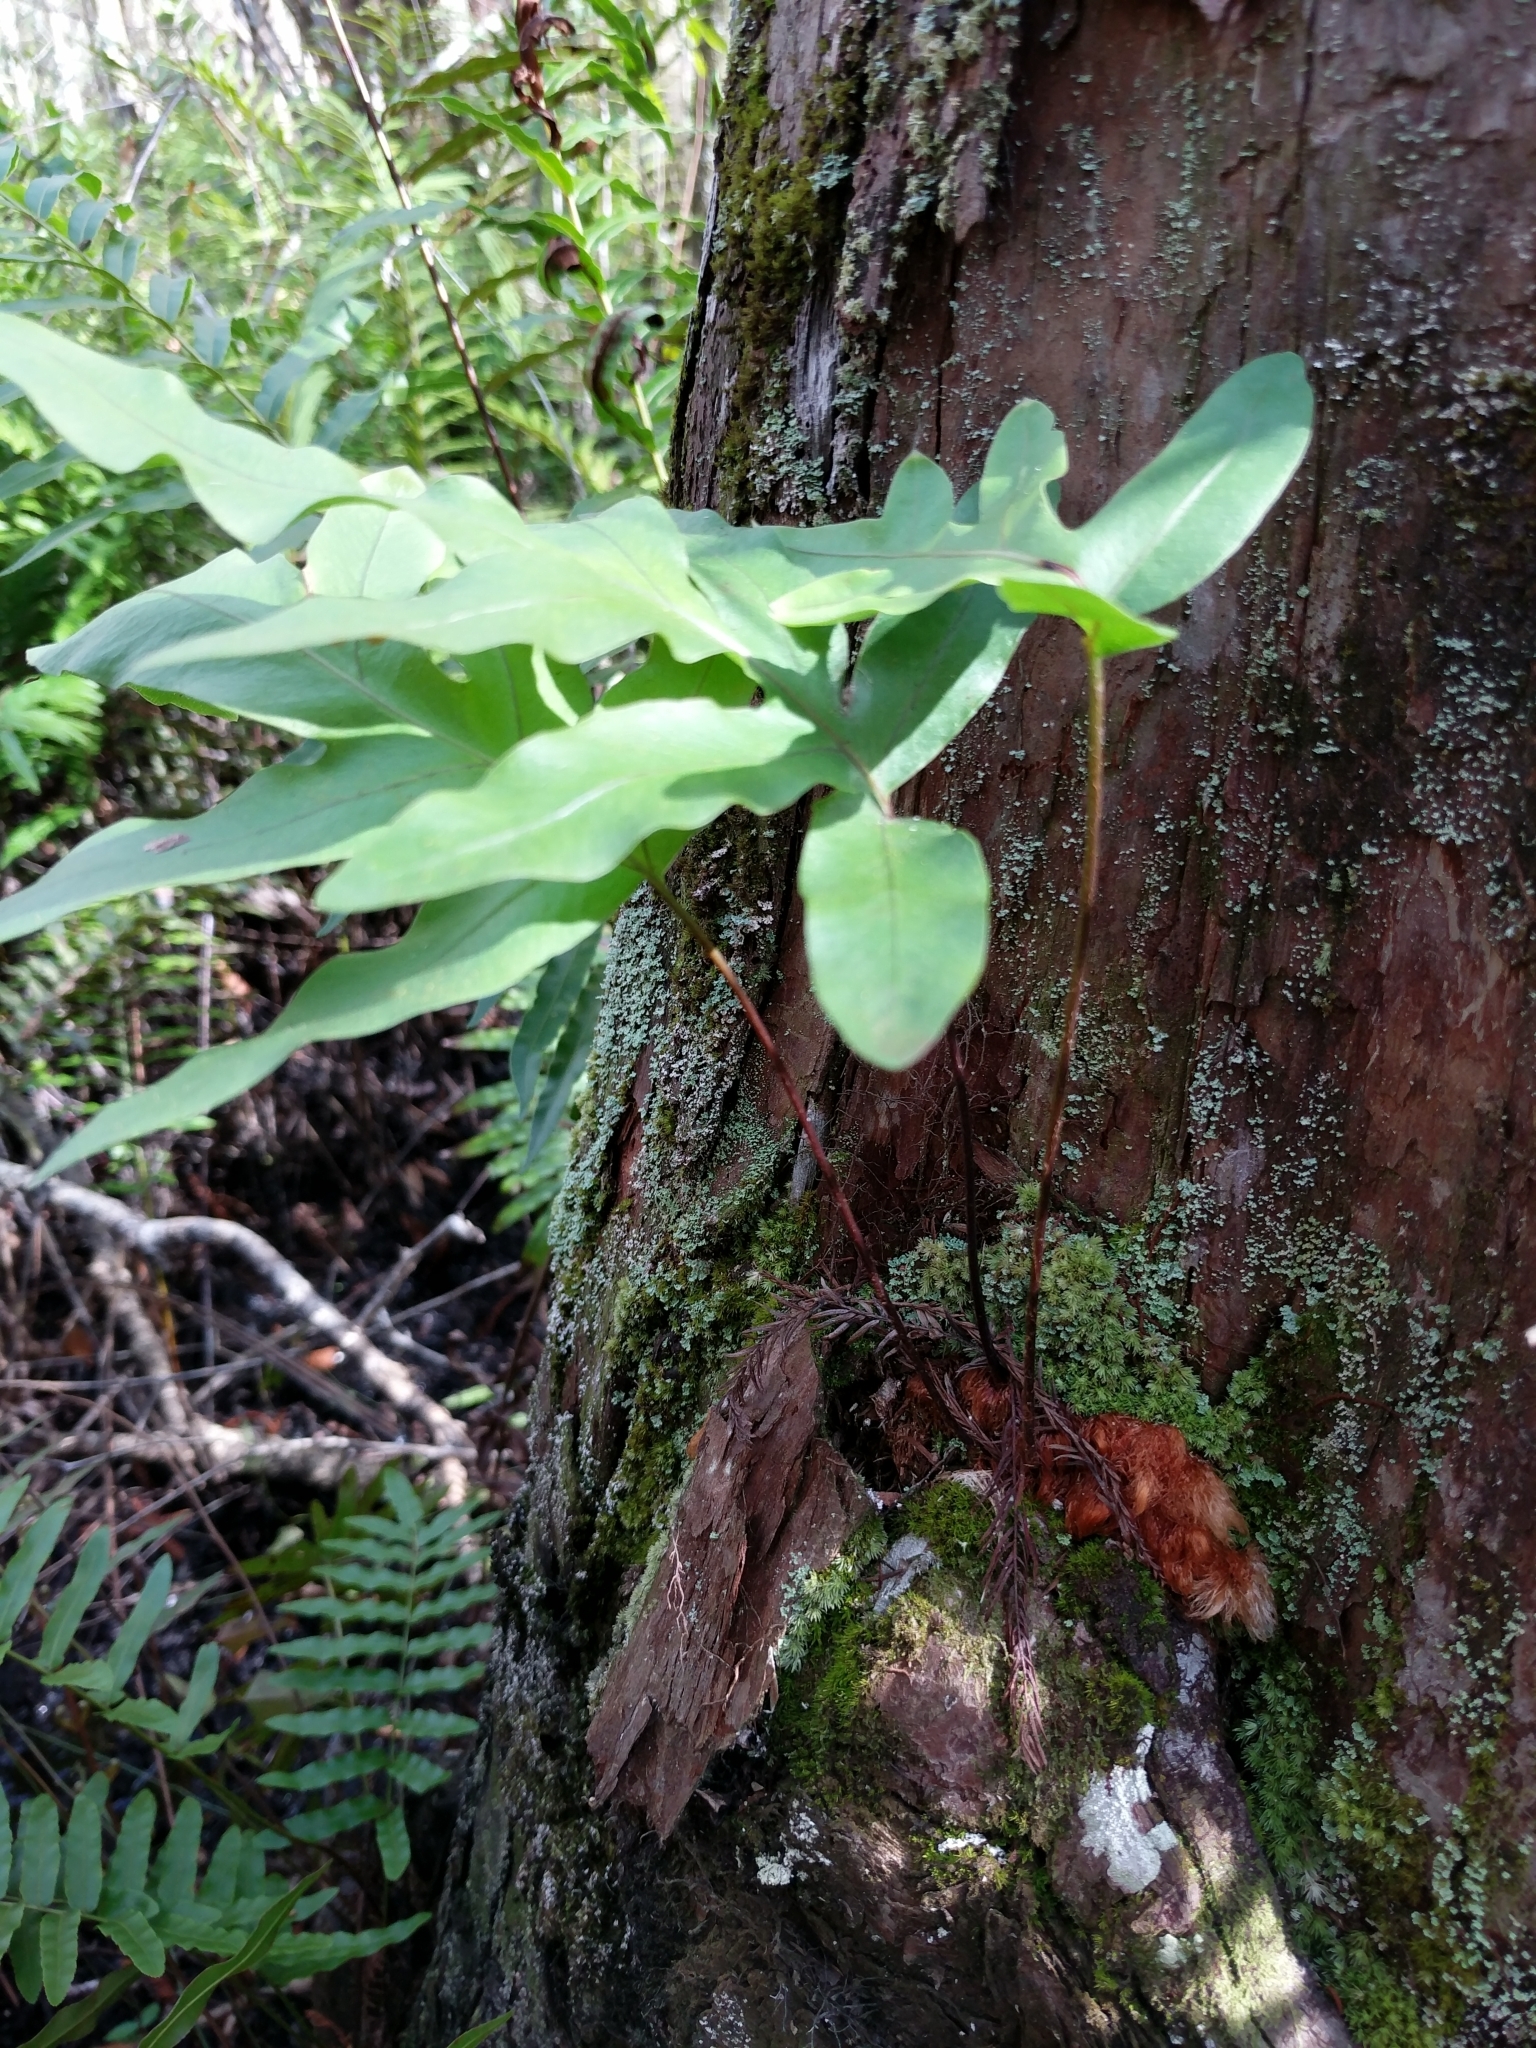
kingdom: Plantae
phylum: Tracheophyta
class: Polypodiopsida
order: Polypodiales
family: Polypodiaceae
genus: Phlebodium
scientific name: Phlebodium aureum
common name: Gold-foot fern
